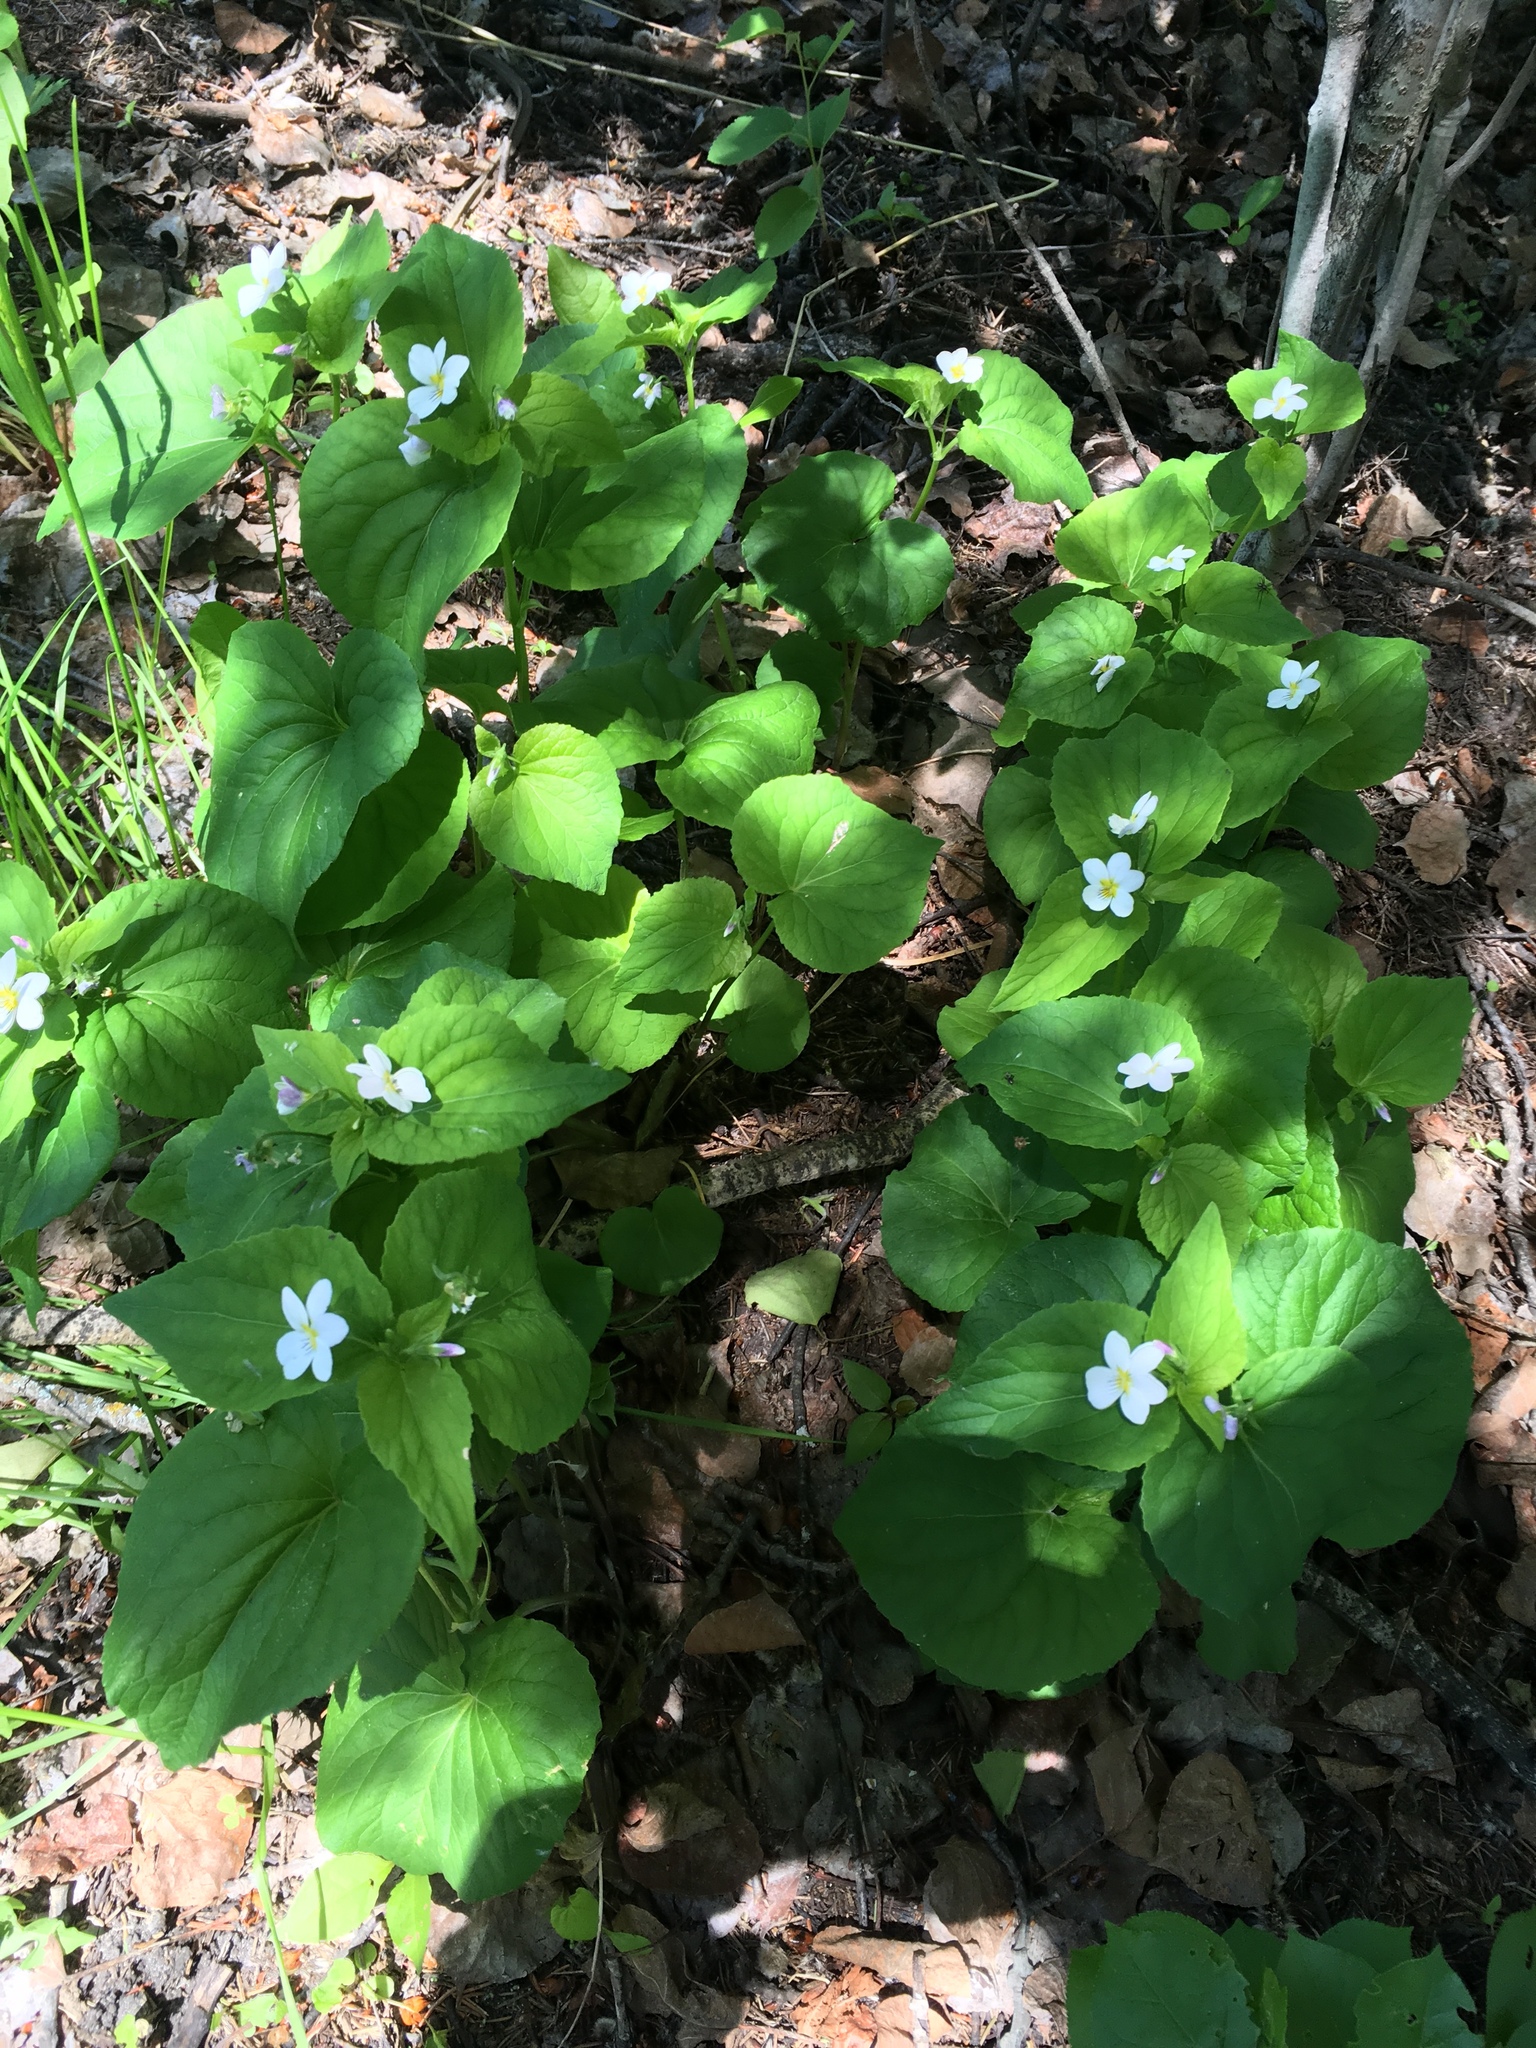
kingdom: Plantae
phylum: Tracheophyta
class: Magnoliopsida
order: Malpighiales
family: Violaceae
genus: Viola
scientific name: Viola canadensis
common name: Canada violet
